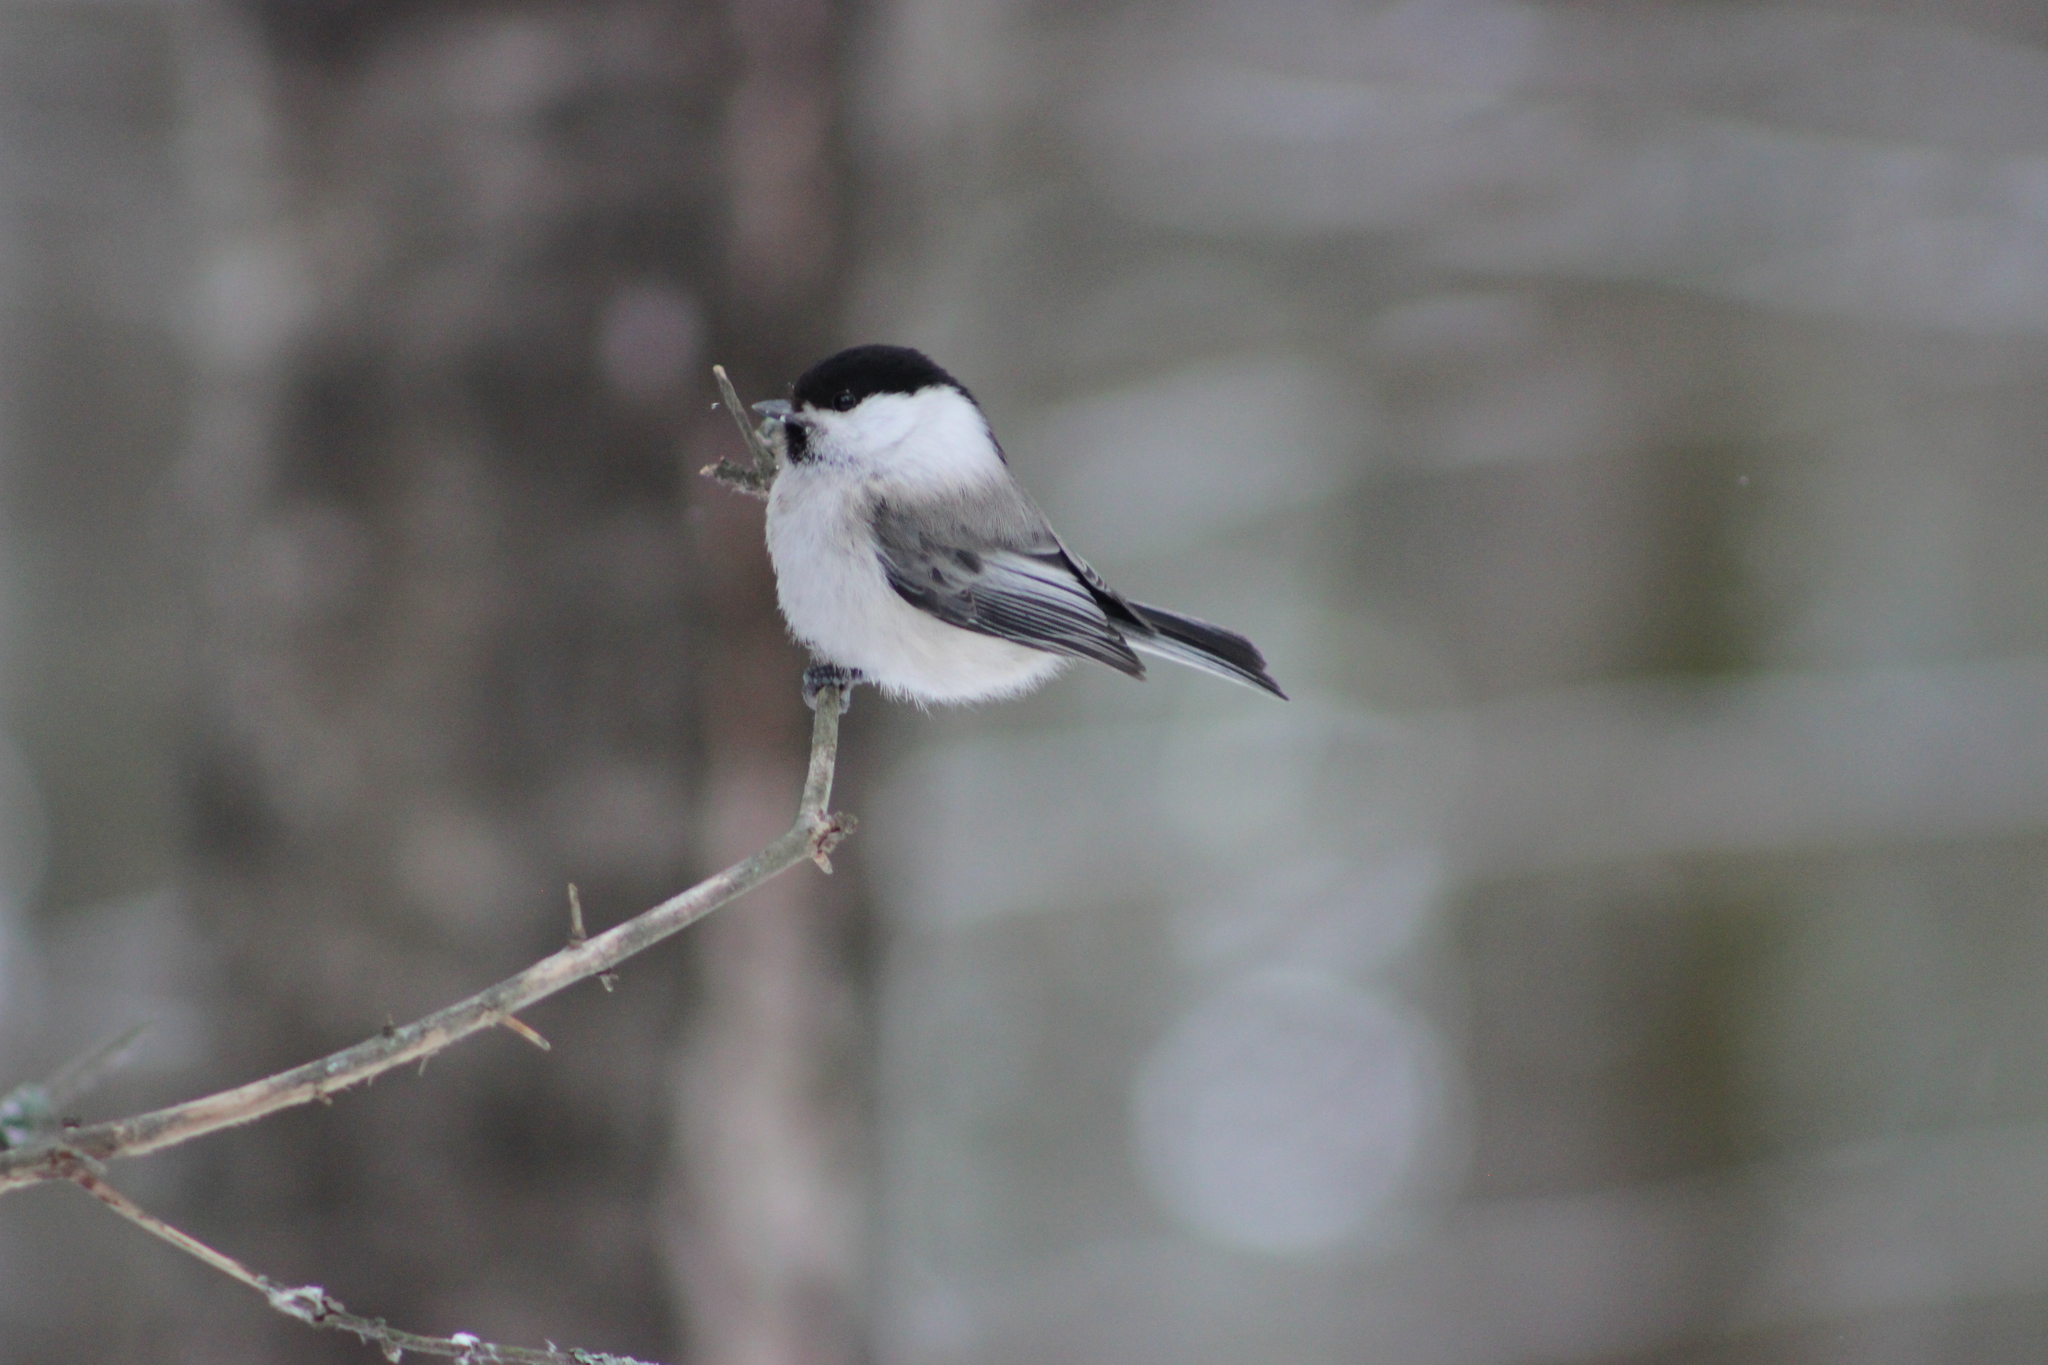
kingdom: Animalia
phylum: Chordata
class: Aves
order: Passeriformes
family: Paridae
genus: Poecile
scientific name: Poecile montanus
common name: Willow tit
